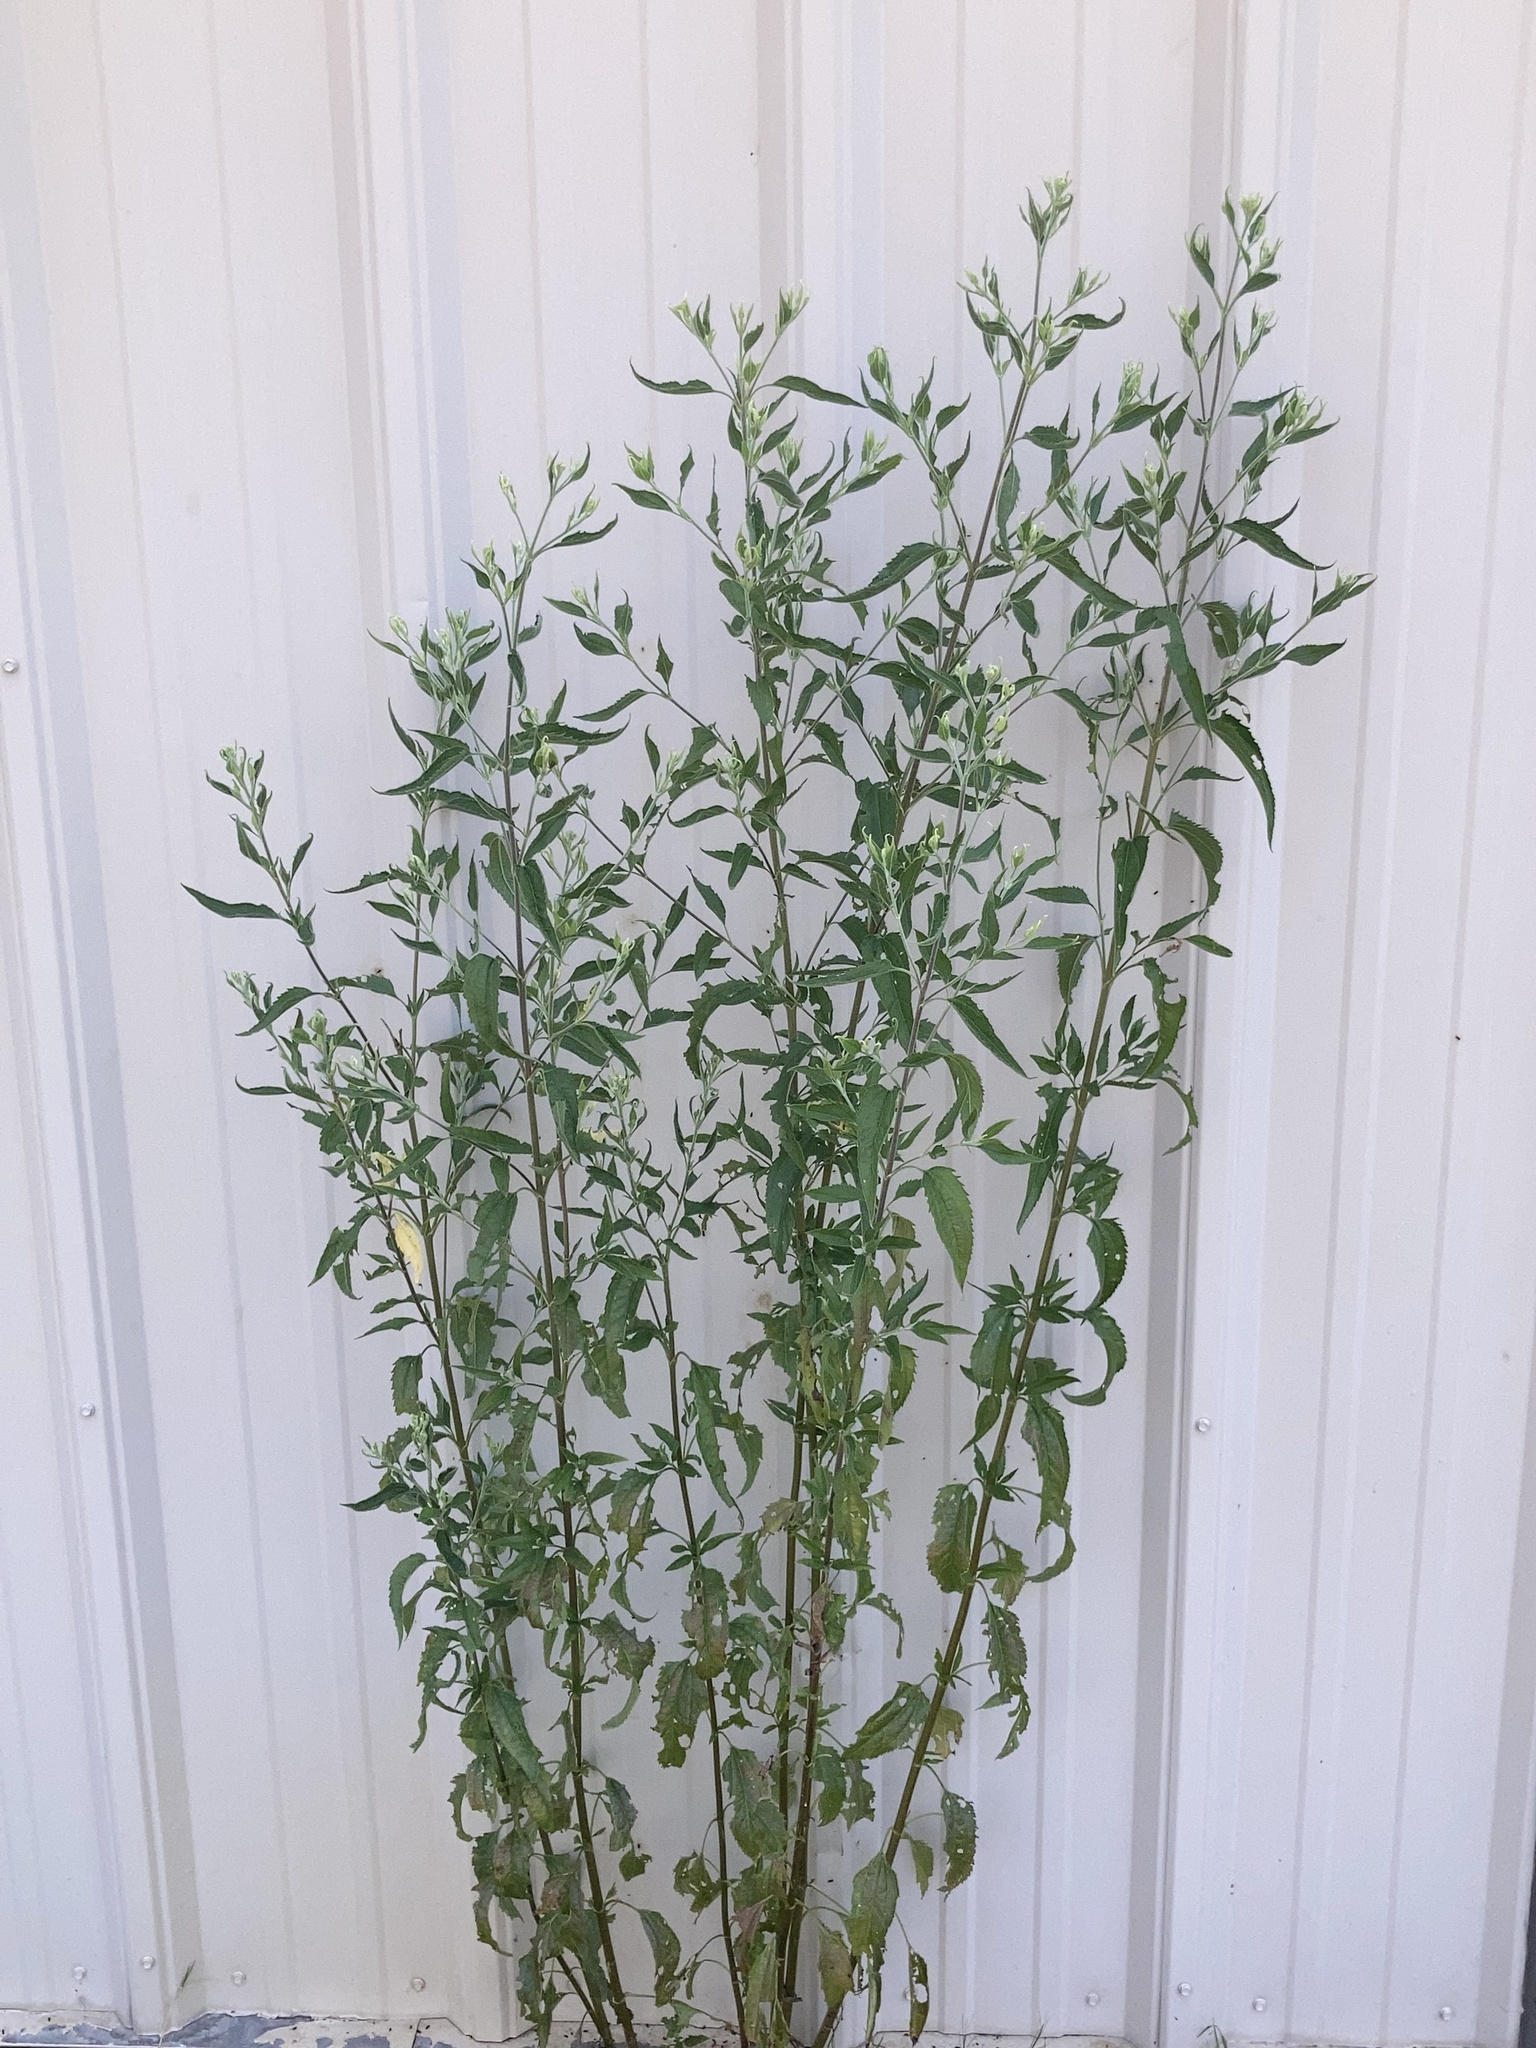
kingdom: Plantae
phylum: Tracheophyta
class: Magnoliopsida
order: Asterales
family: Asteraceae
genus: Eupatorium
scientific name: Eupatorium serotinum
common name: Late boneset
